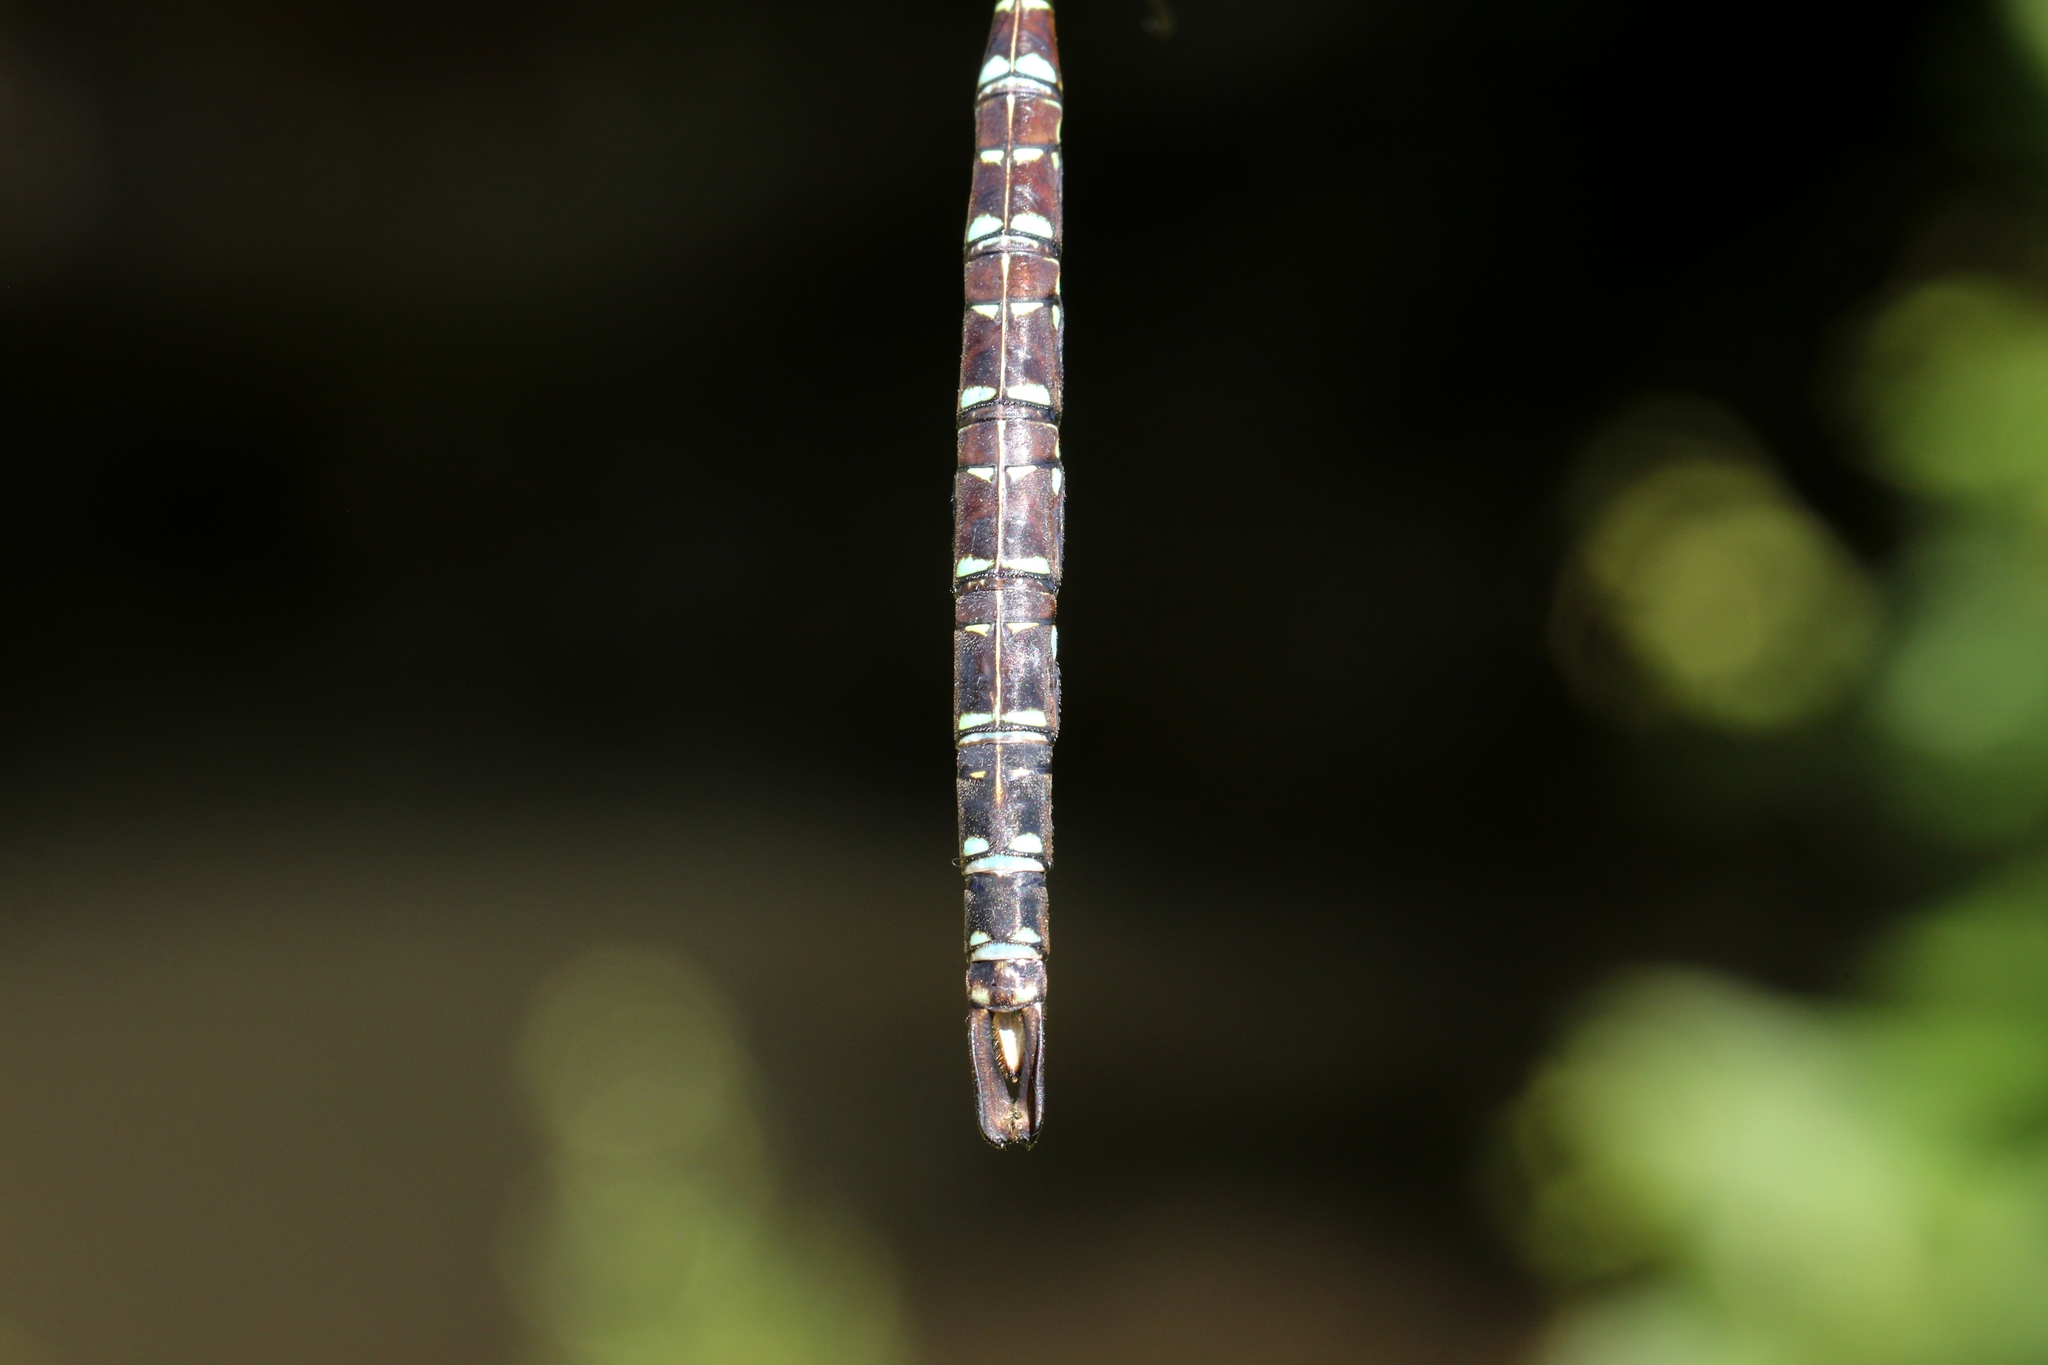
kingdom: Animalia
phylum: Arthropoda
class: Insecta
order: Odonata
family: Aeshnidae
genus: Aeshna
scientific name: Aeshna umbrosa
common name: Shadow darner
